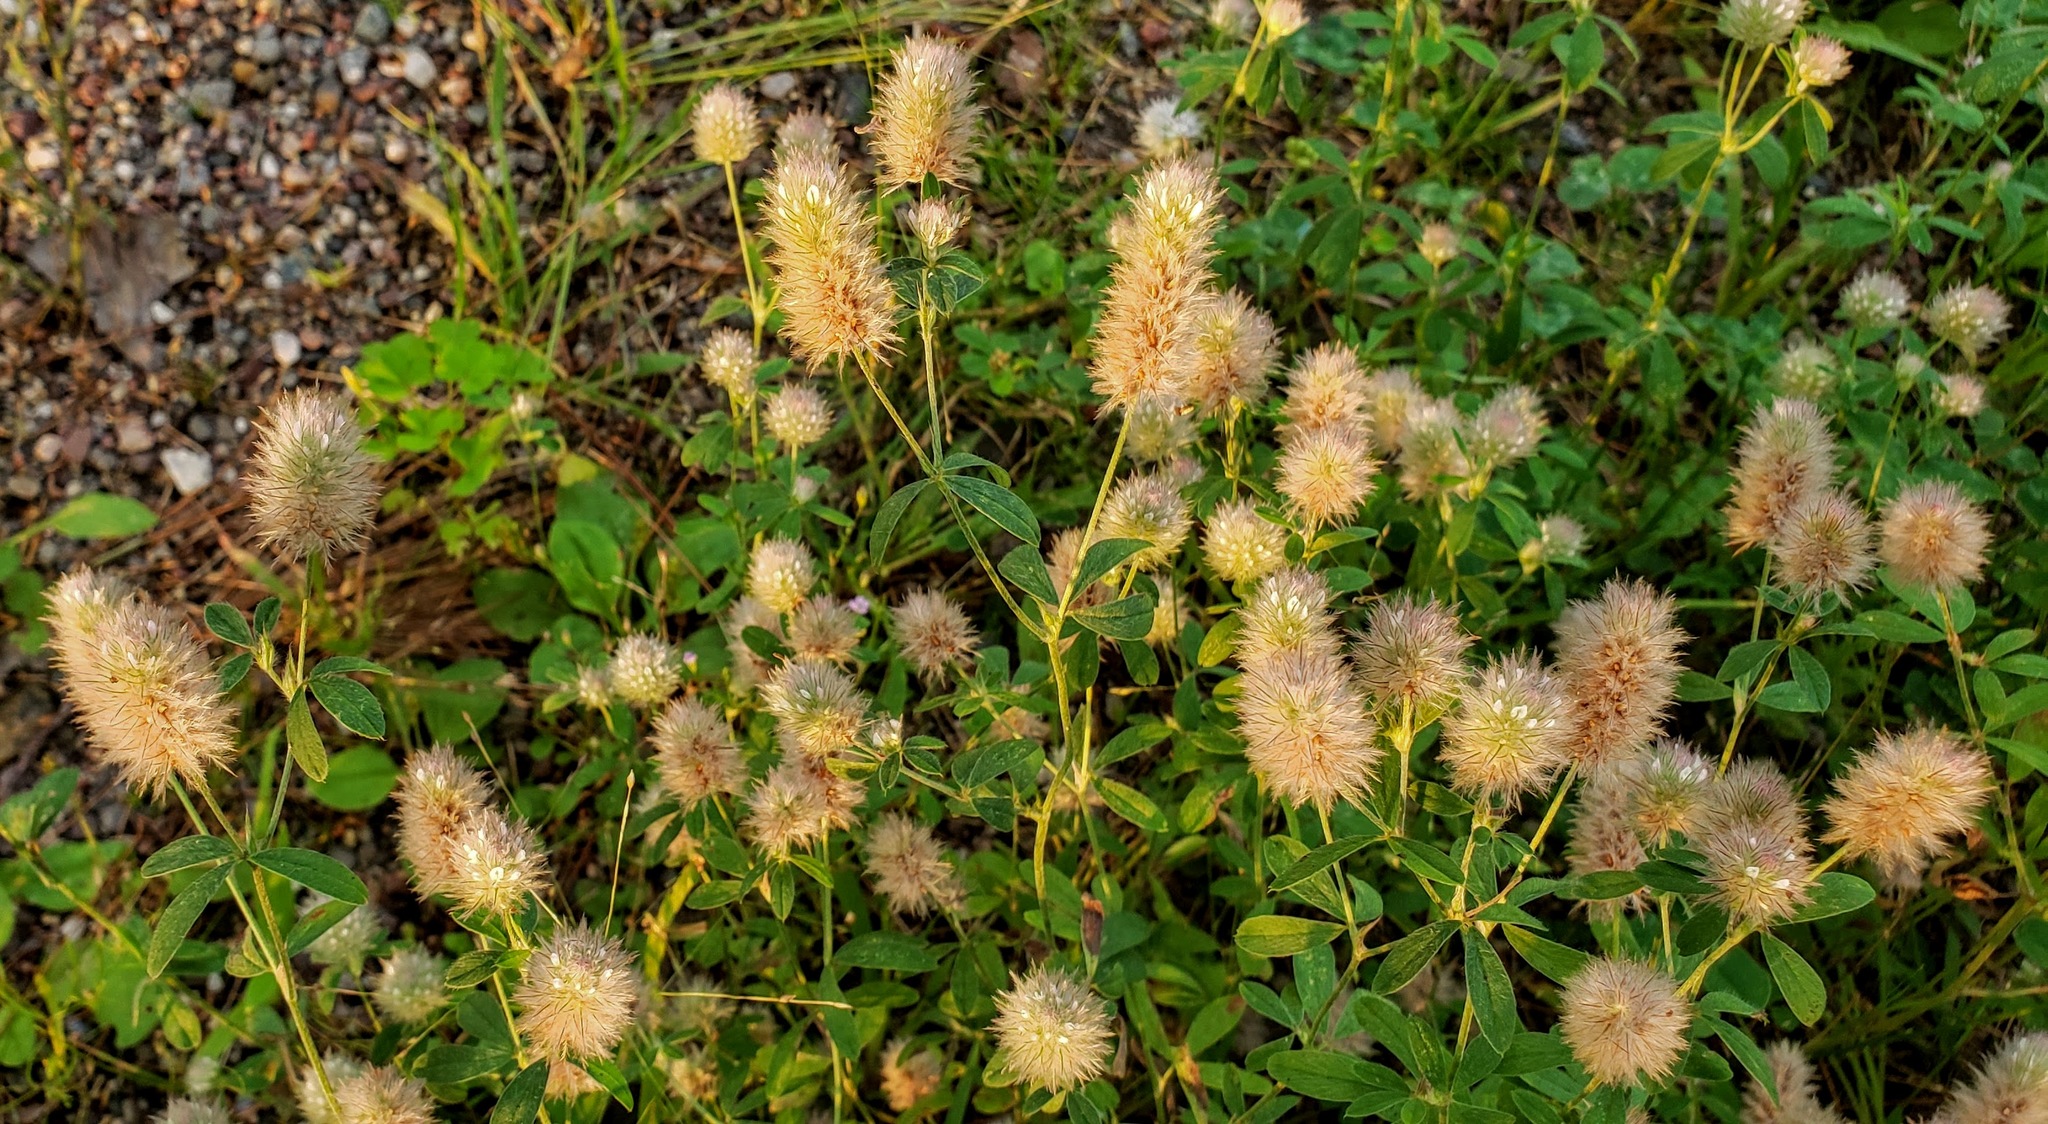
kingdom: Plantae
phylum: Tracheophyta
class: Magnoliopsida
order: Fabales
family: Fabaceae
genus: Trifolium
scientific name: Trifolium arvense
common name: Hare's-foot clover
